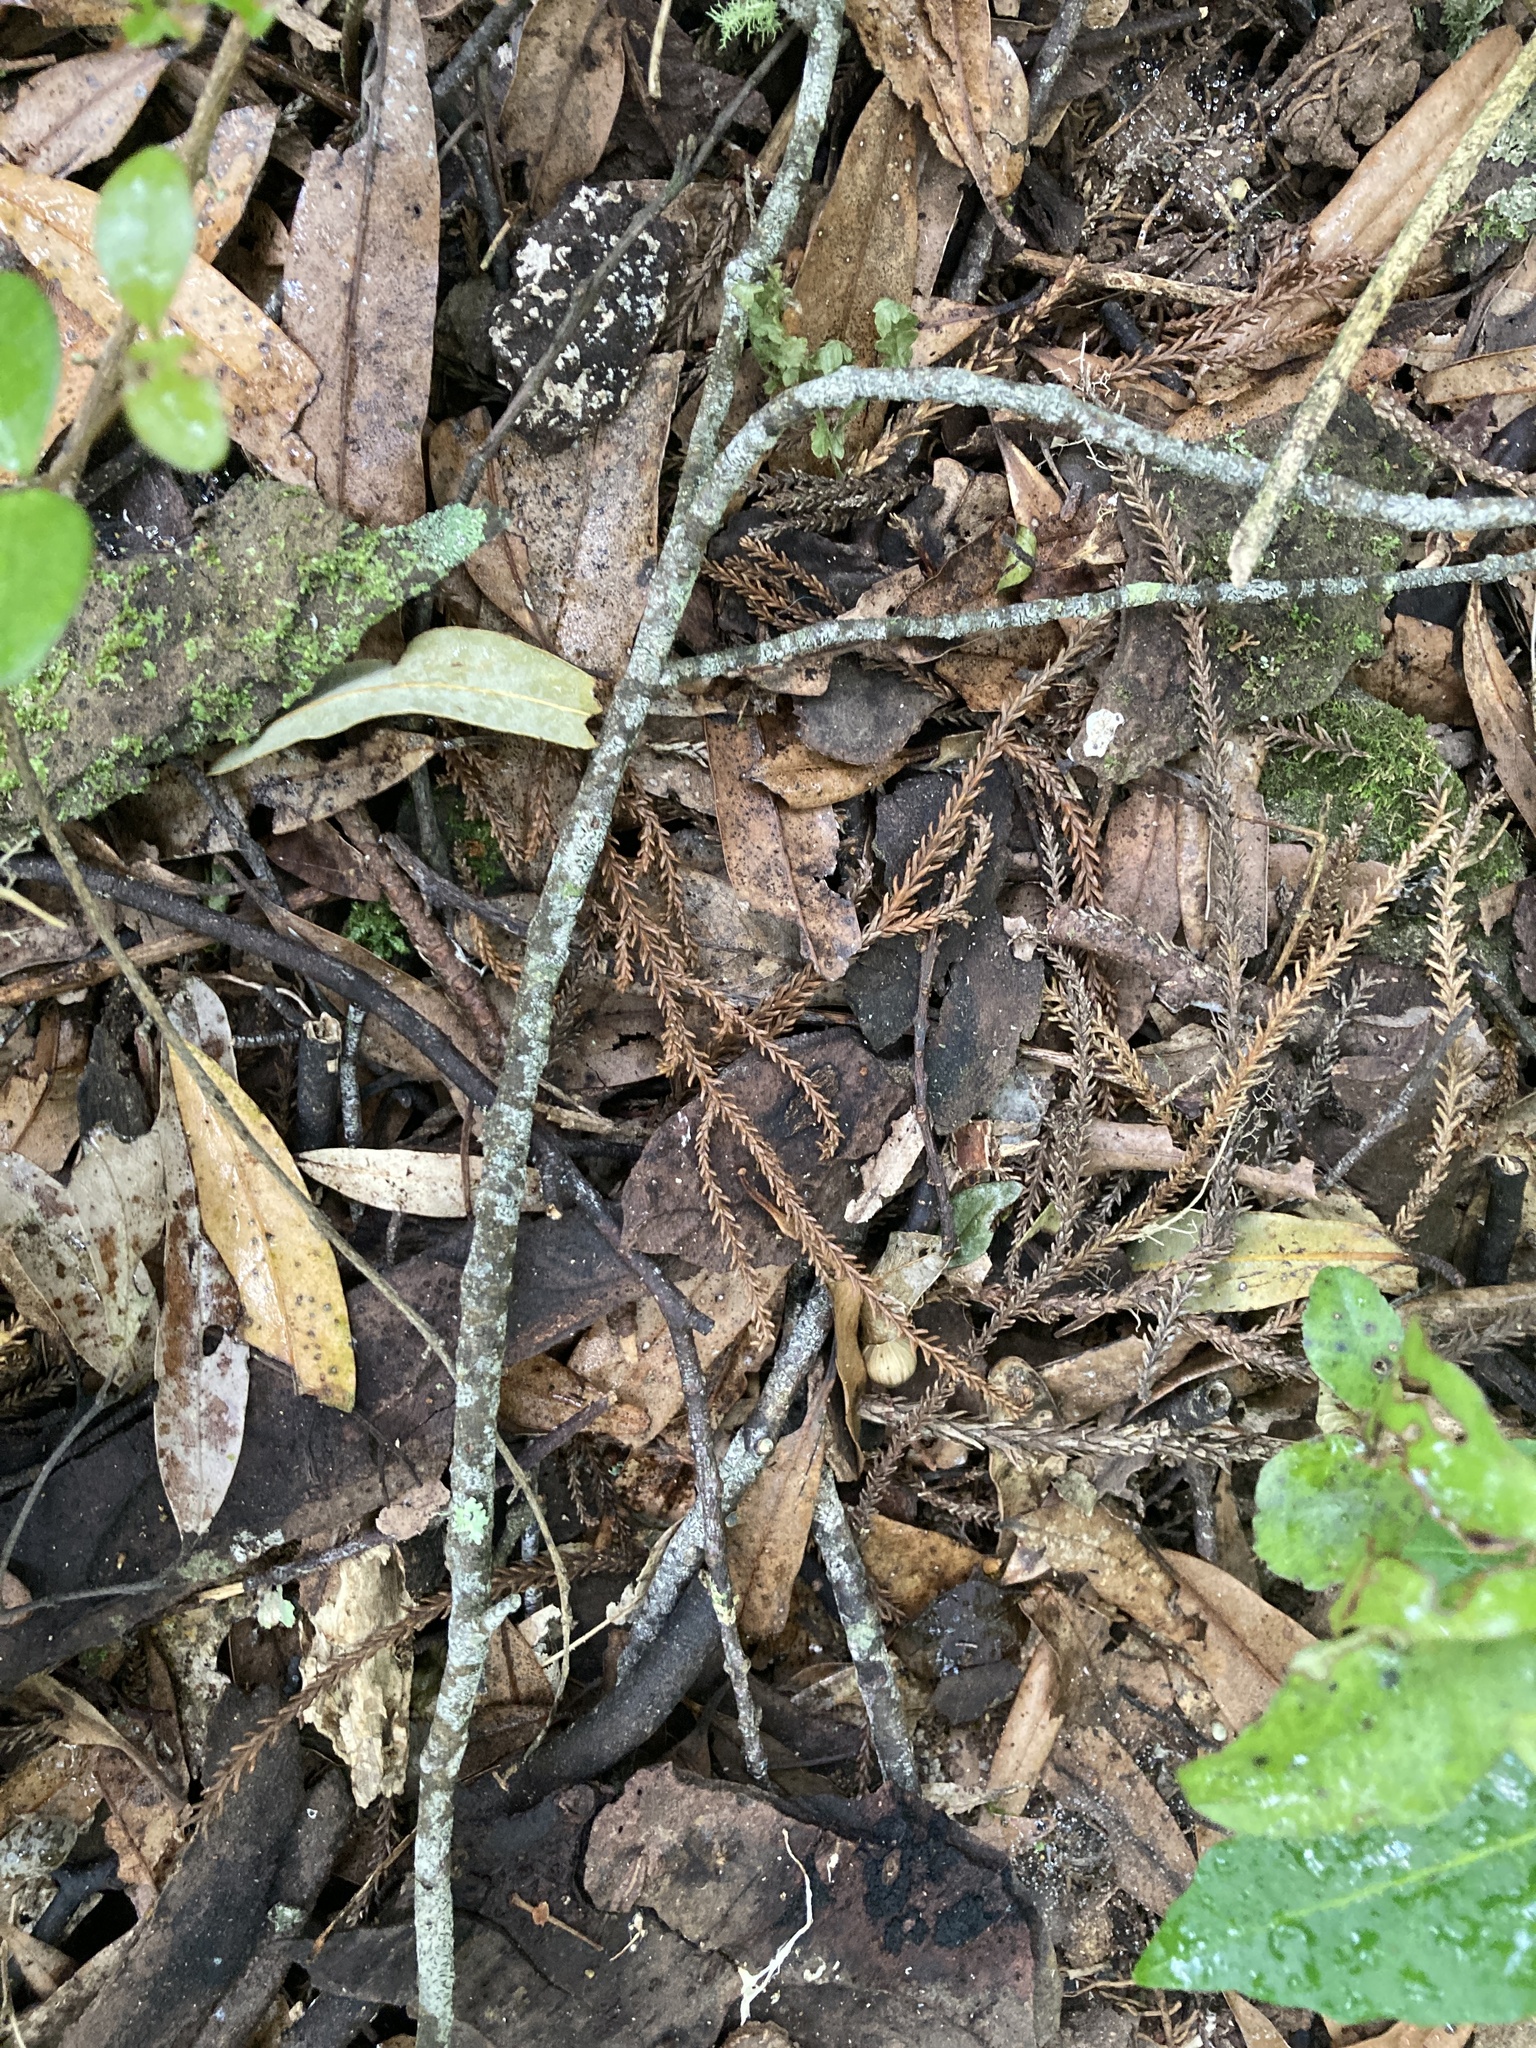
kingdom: Plantae
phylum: Tracheophyta
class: Pinopsida
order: Pinales
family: Podocarpaceae
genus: Dacrydium
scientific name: Dacrydium cupressinum
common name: Red pine
